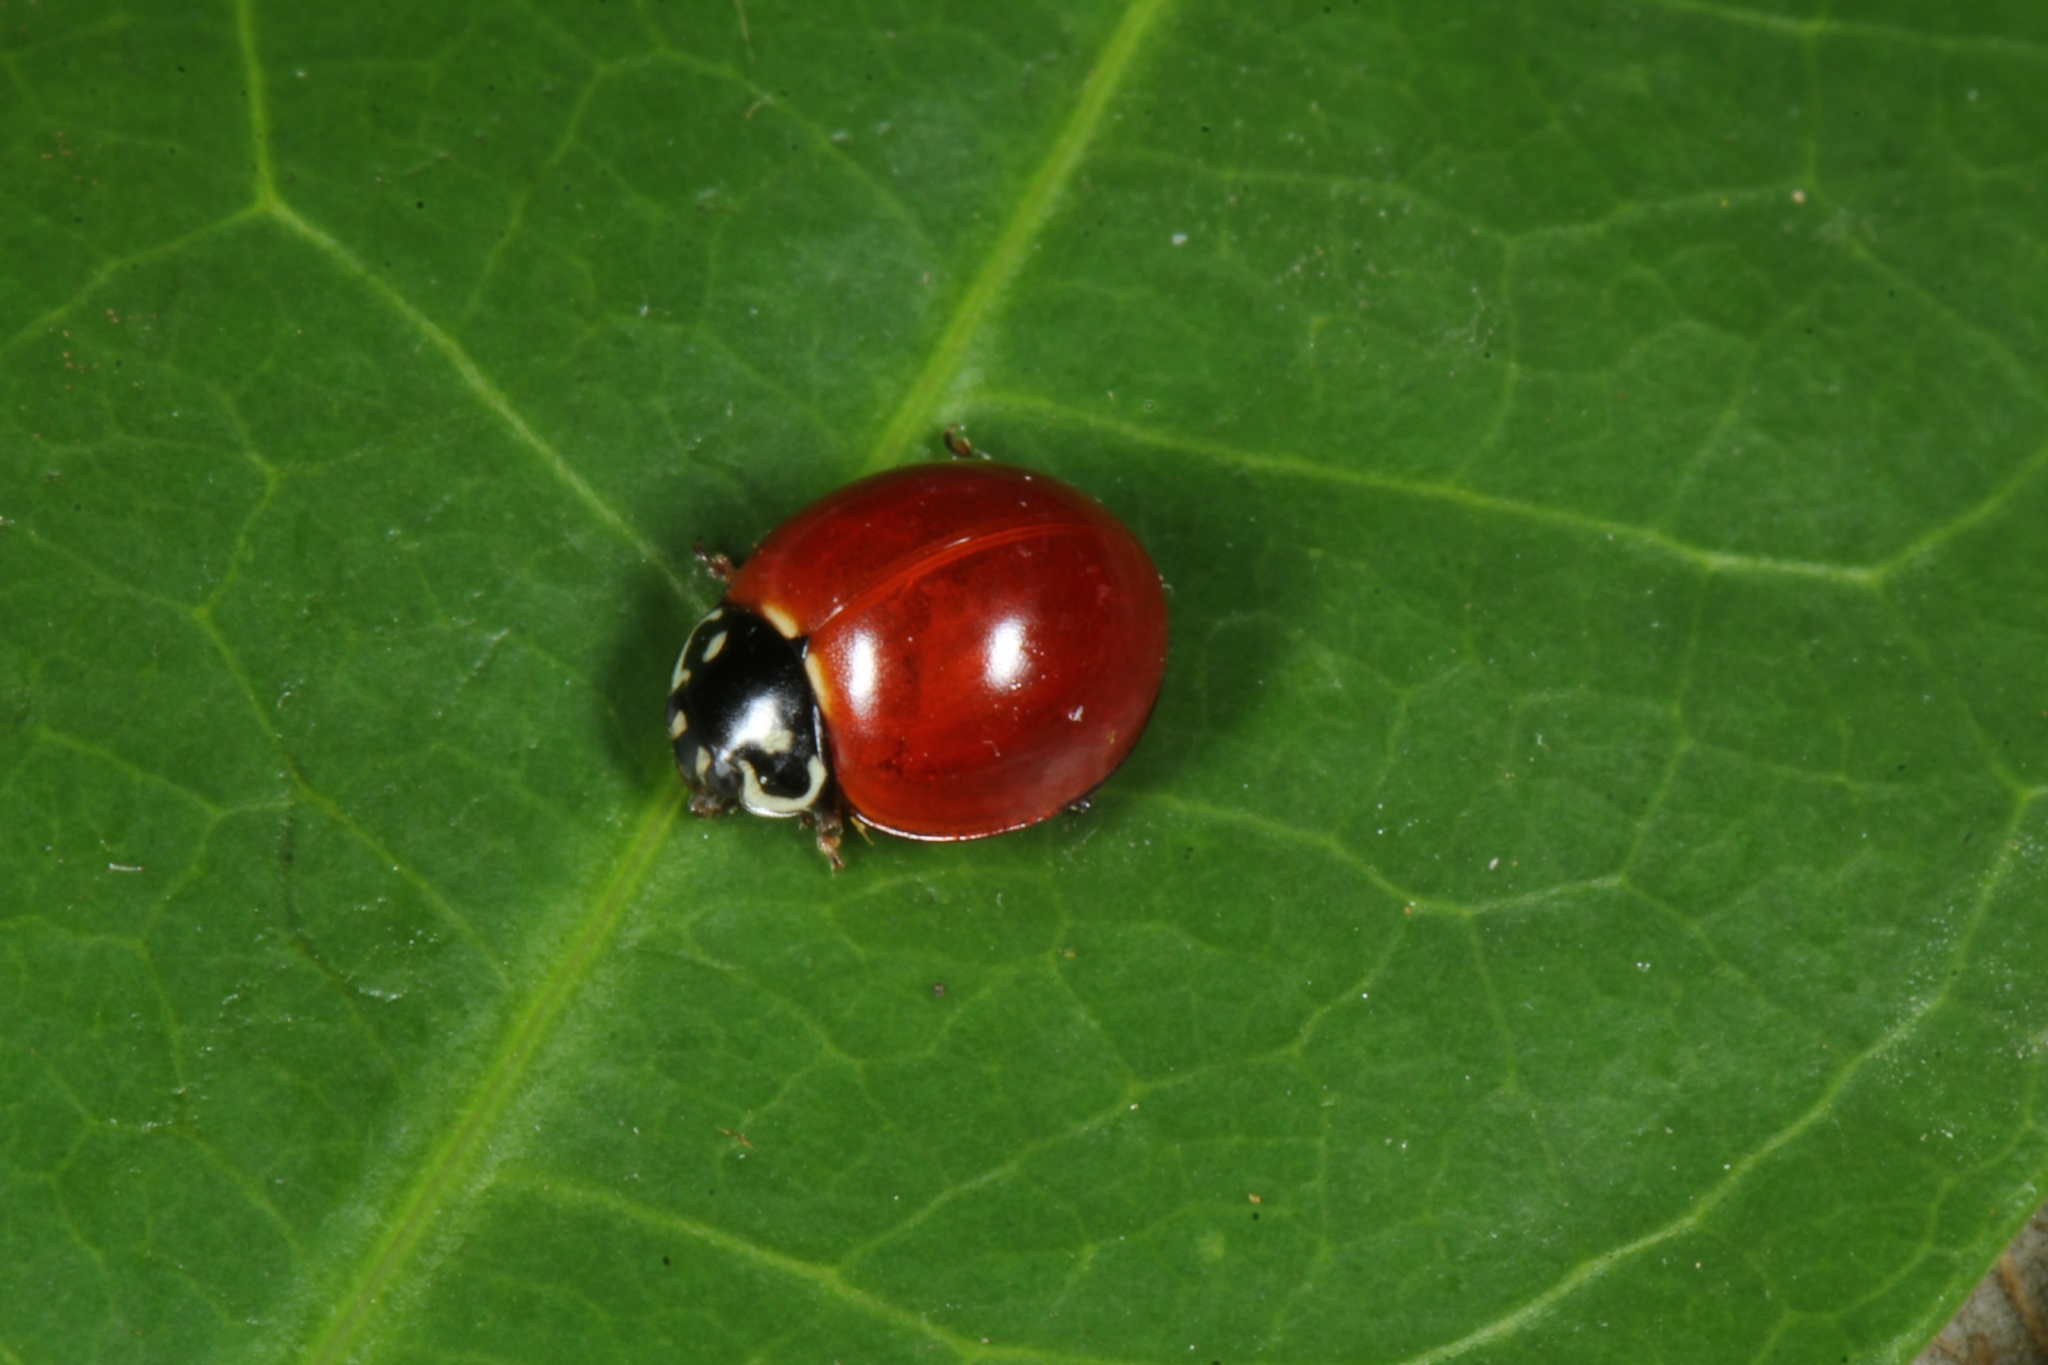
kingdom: Animalia
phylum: Arthropoda
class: Insecta
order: Coleoptera
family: Coccinellidae
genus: Cycloneda
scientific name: Cycloneda sanguinea
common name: Ladybird beetle
